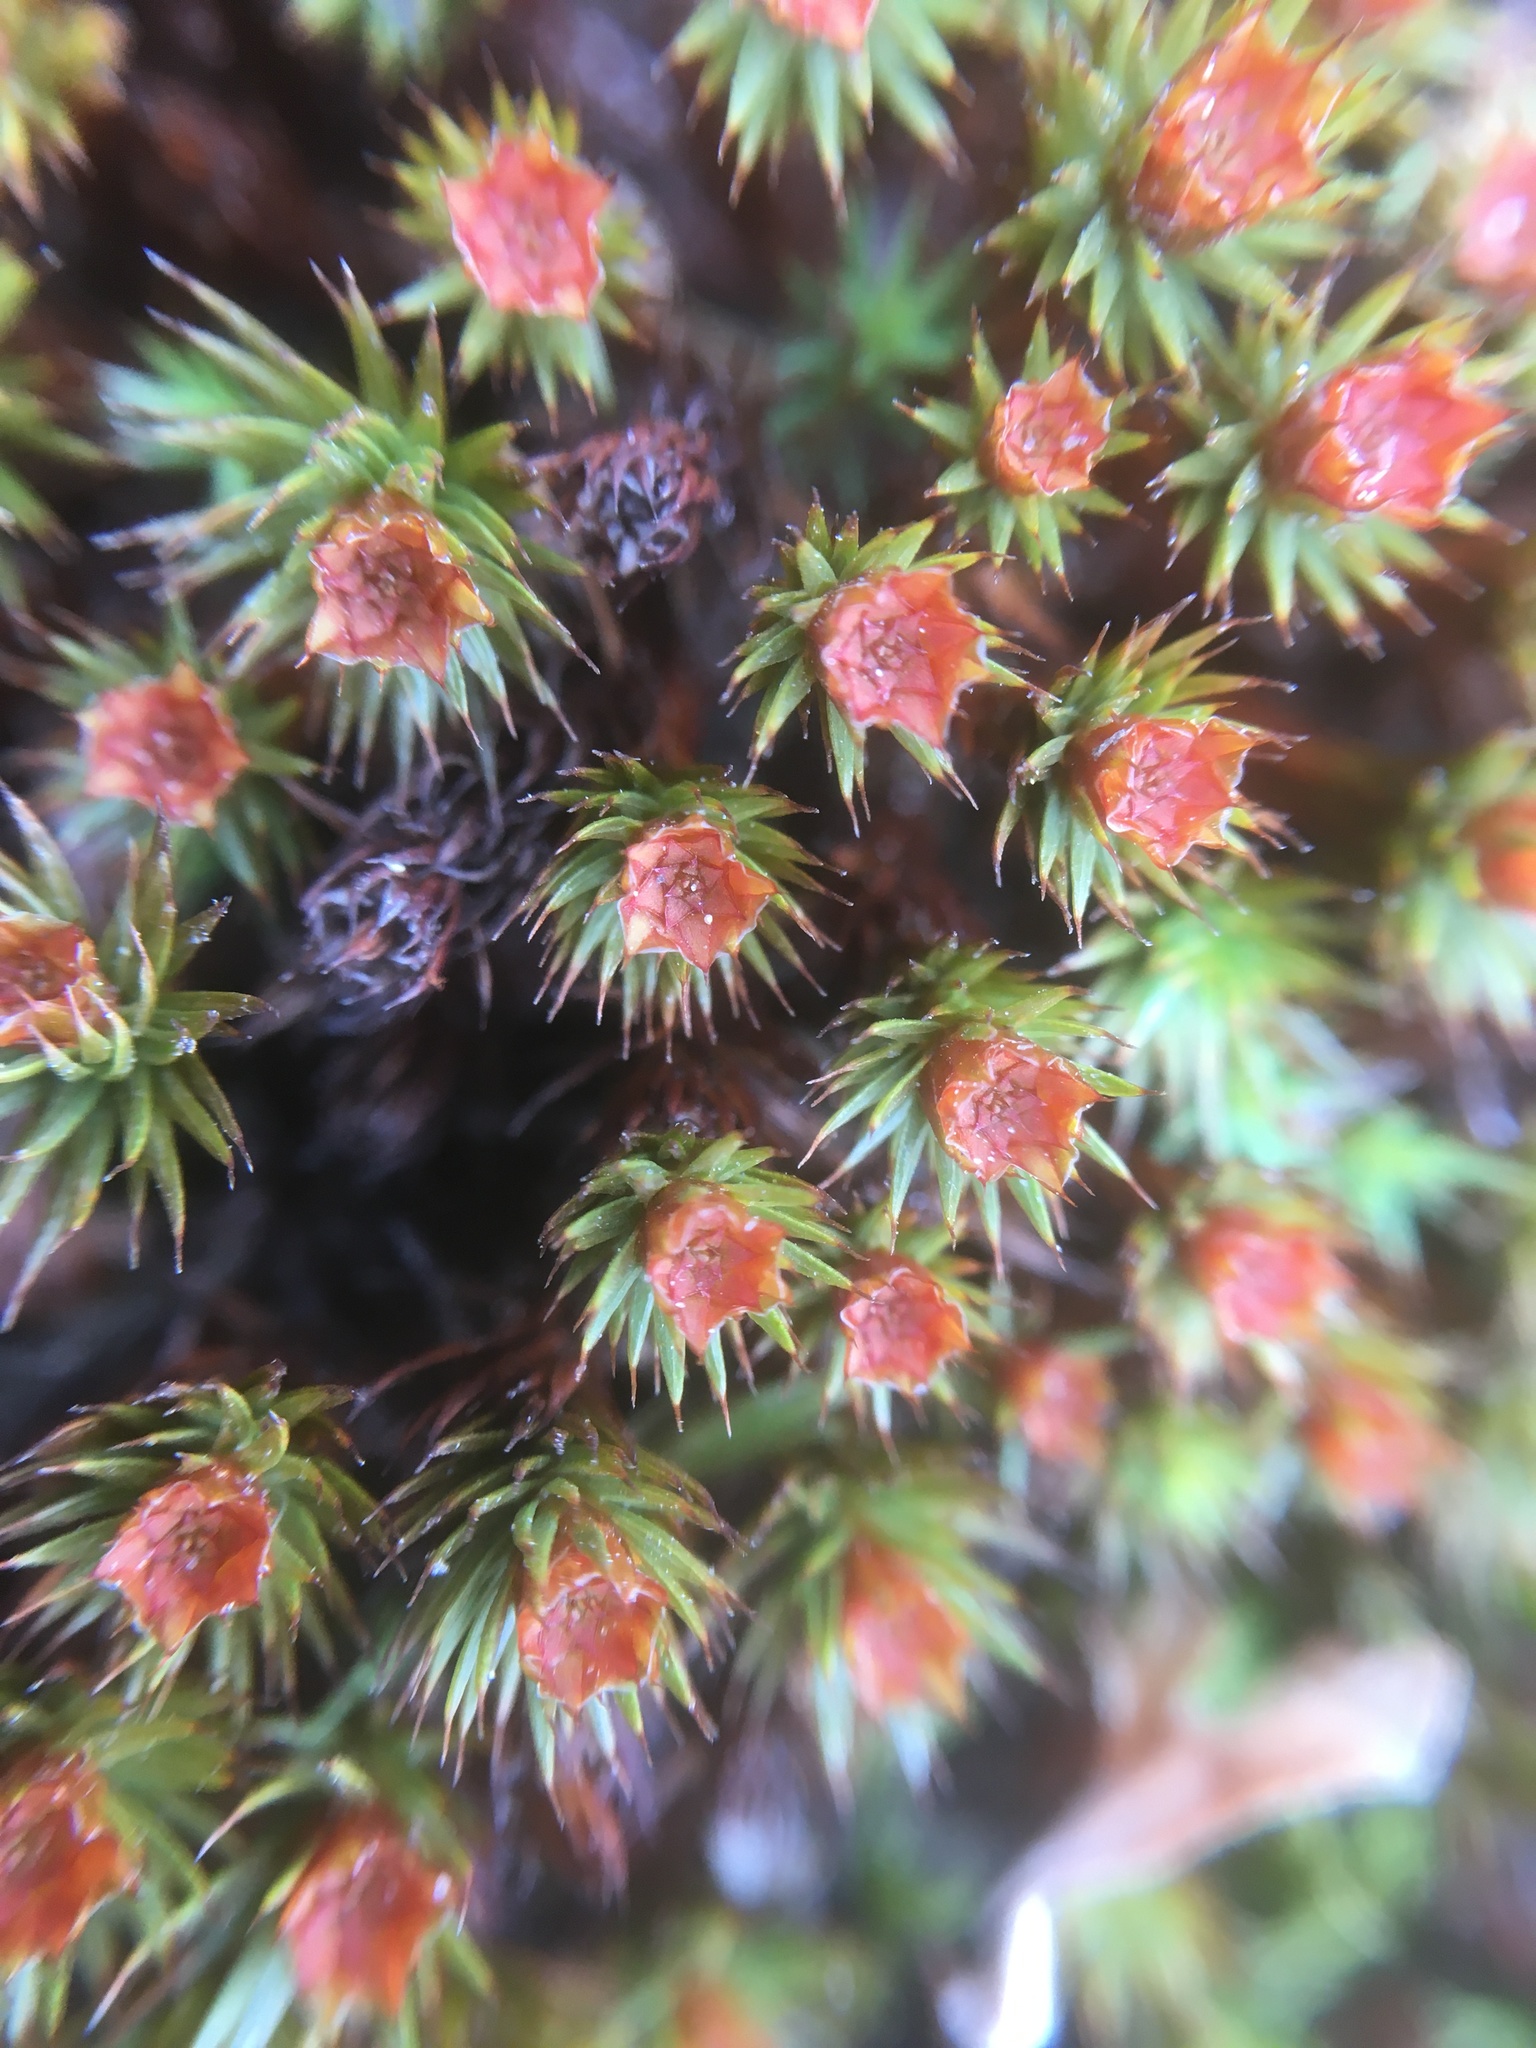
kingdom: Plantae
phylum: Bryophyta
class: Polytrichopsida
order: Polytrichales
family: Polytrichaceae
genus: Polytrichum
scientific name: Polytrichum piliferum
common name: Bristly haircap
